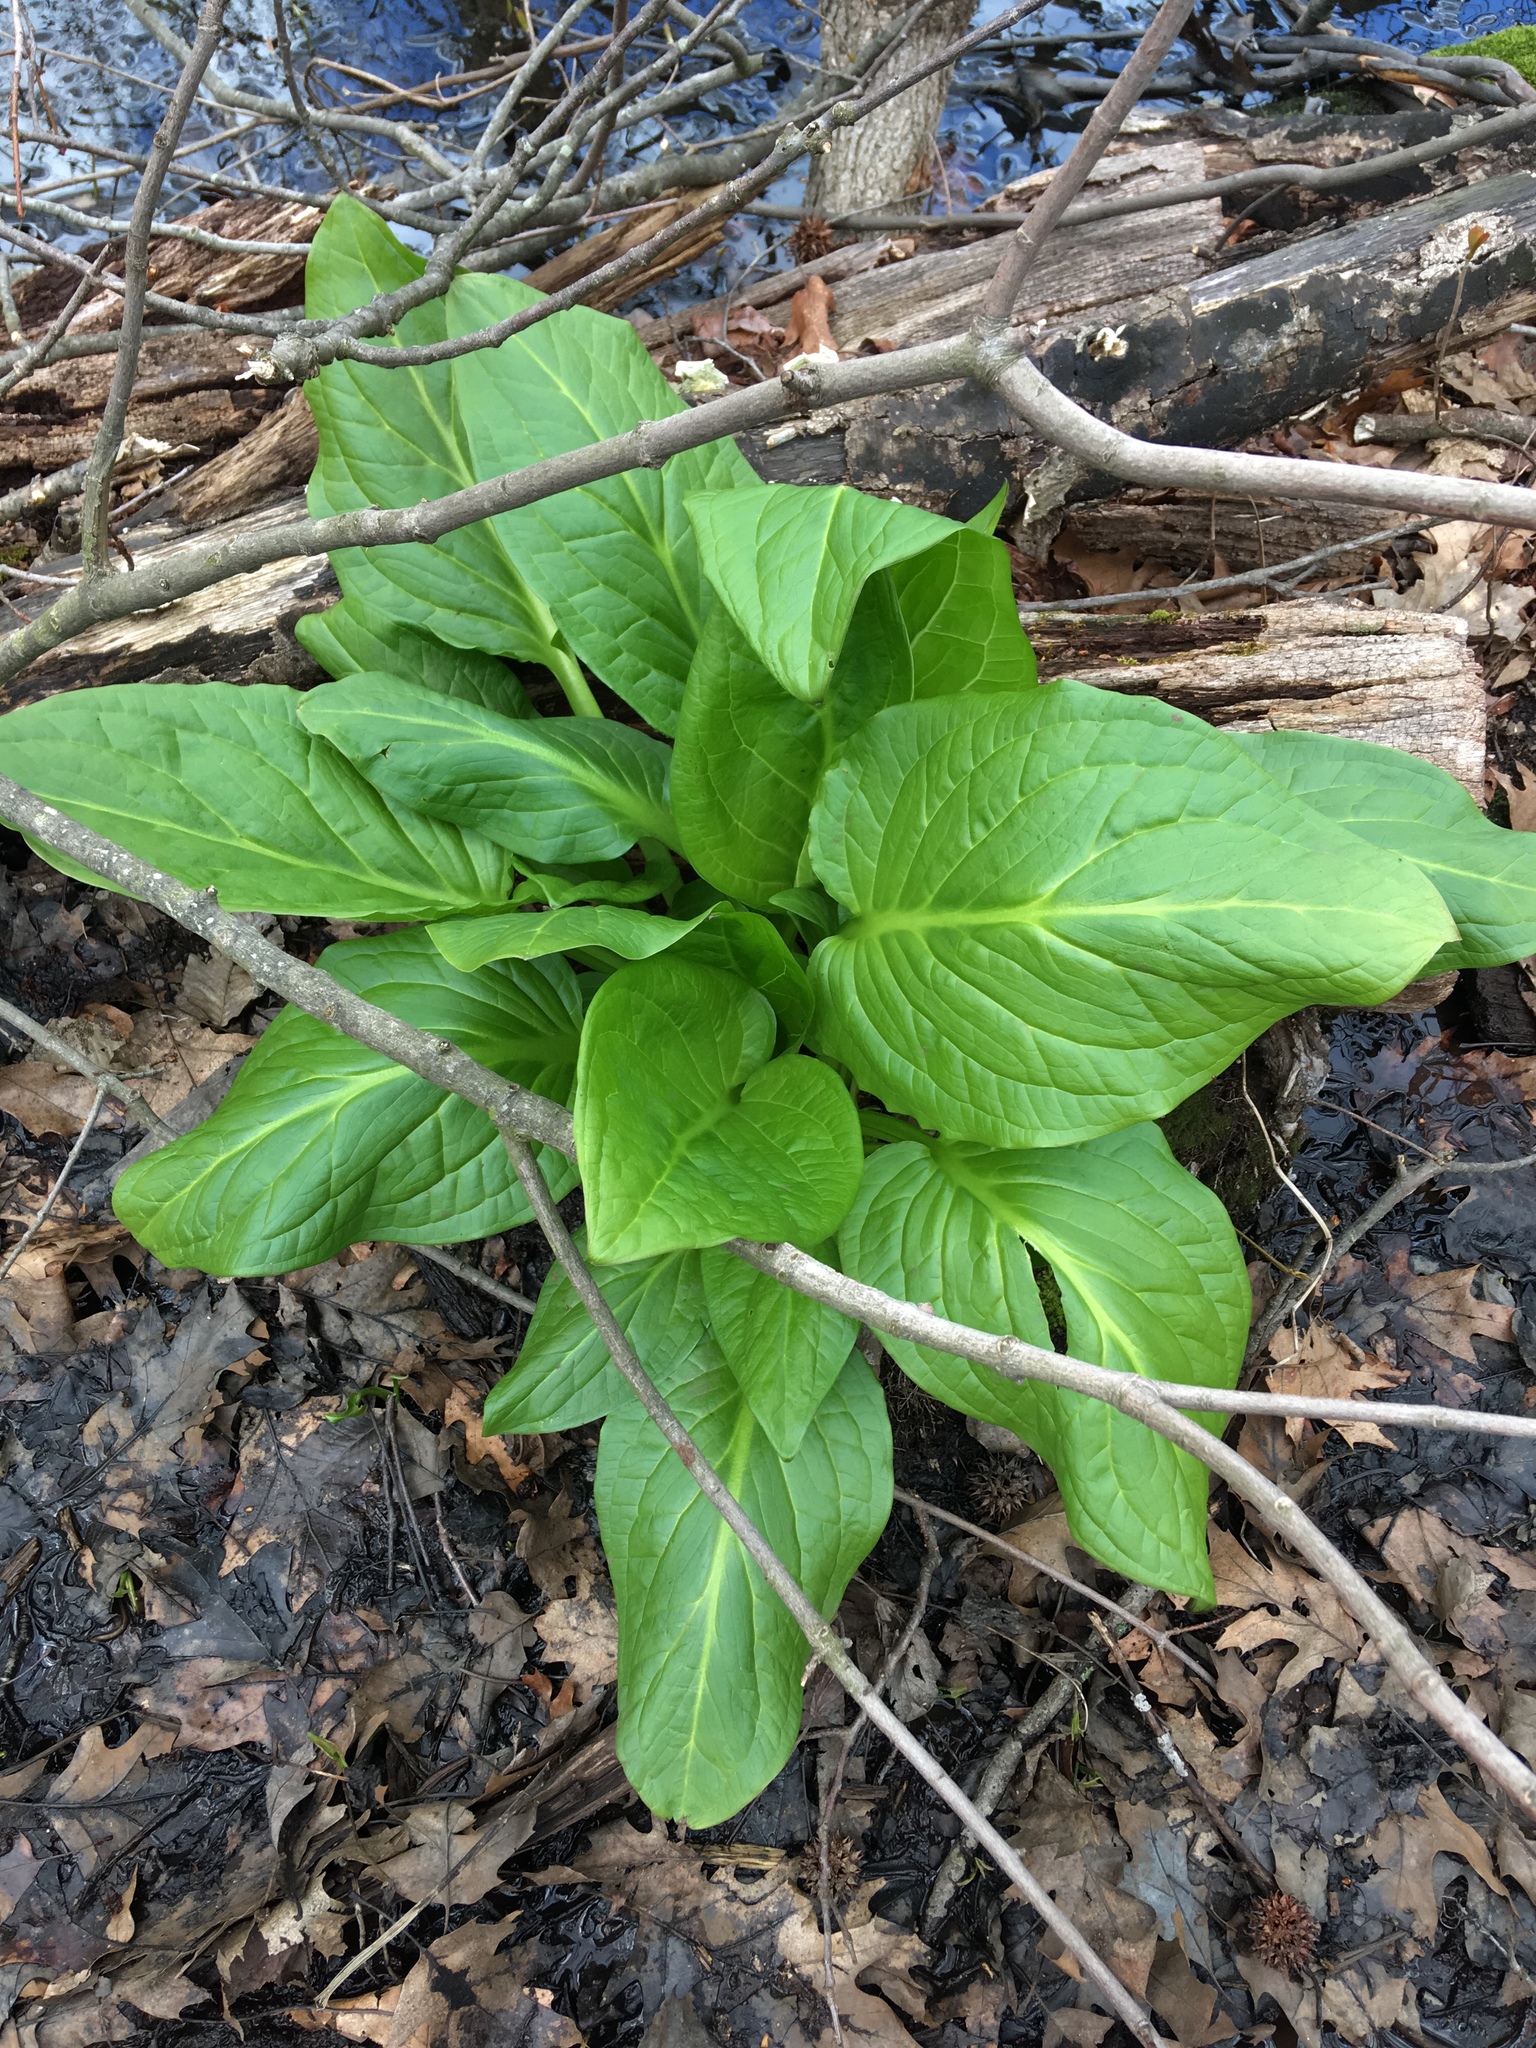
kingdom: Plantae
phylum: Tracheophyta
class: Liliopsida
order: Alismatales
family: Araceae
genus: Symplocarpus
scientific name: Symplocarpus foetidus
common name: Eastern skunk cabbage
